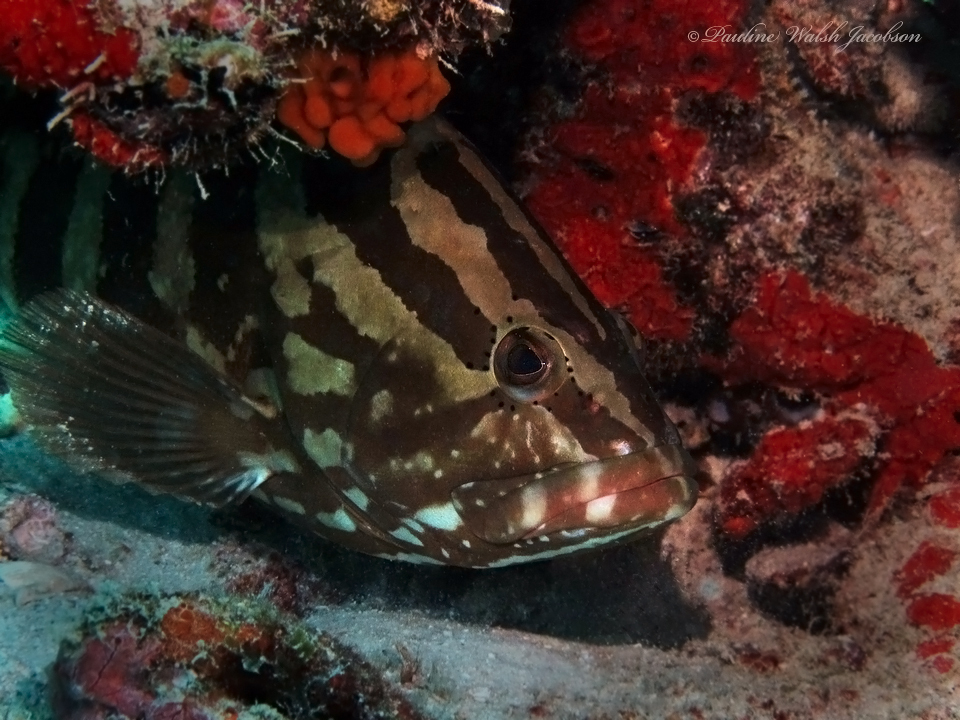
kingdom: Animalia
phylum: Chordata
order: Perciformes
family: Serranidae
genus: Epinephelus
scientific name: Epinephelus striatus
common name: Nassau grouper
